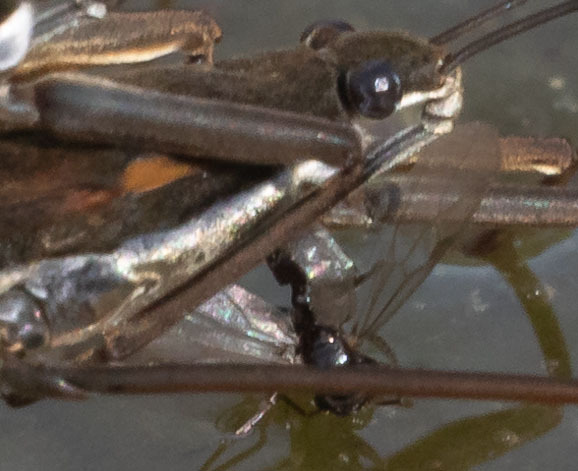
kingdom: Animalia
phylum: Arthropoda
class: Insecta
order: Hemiptera
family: Gerridae
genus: Aquarius
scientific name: Aquarius remigis
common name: Common water strider
